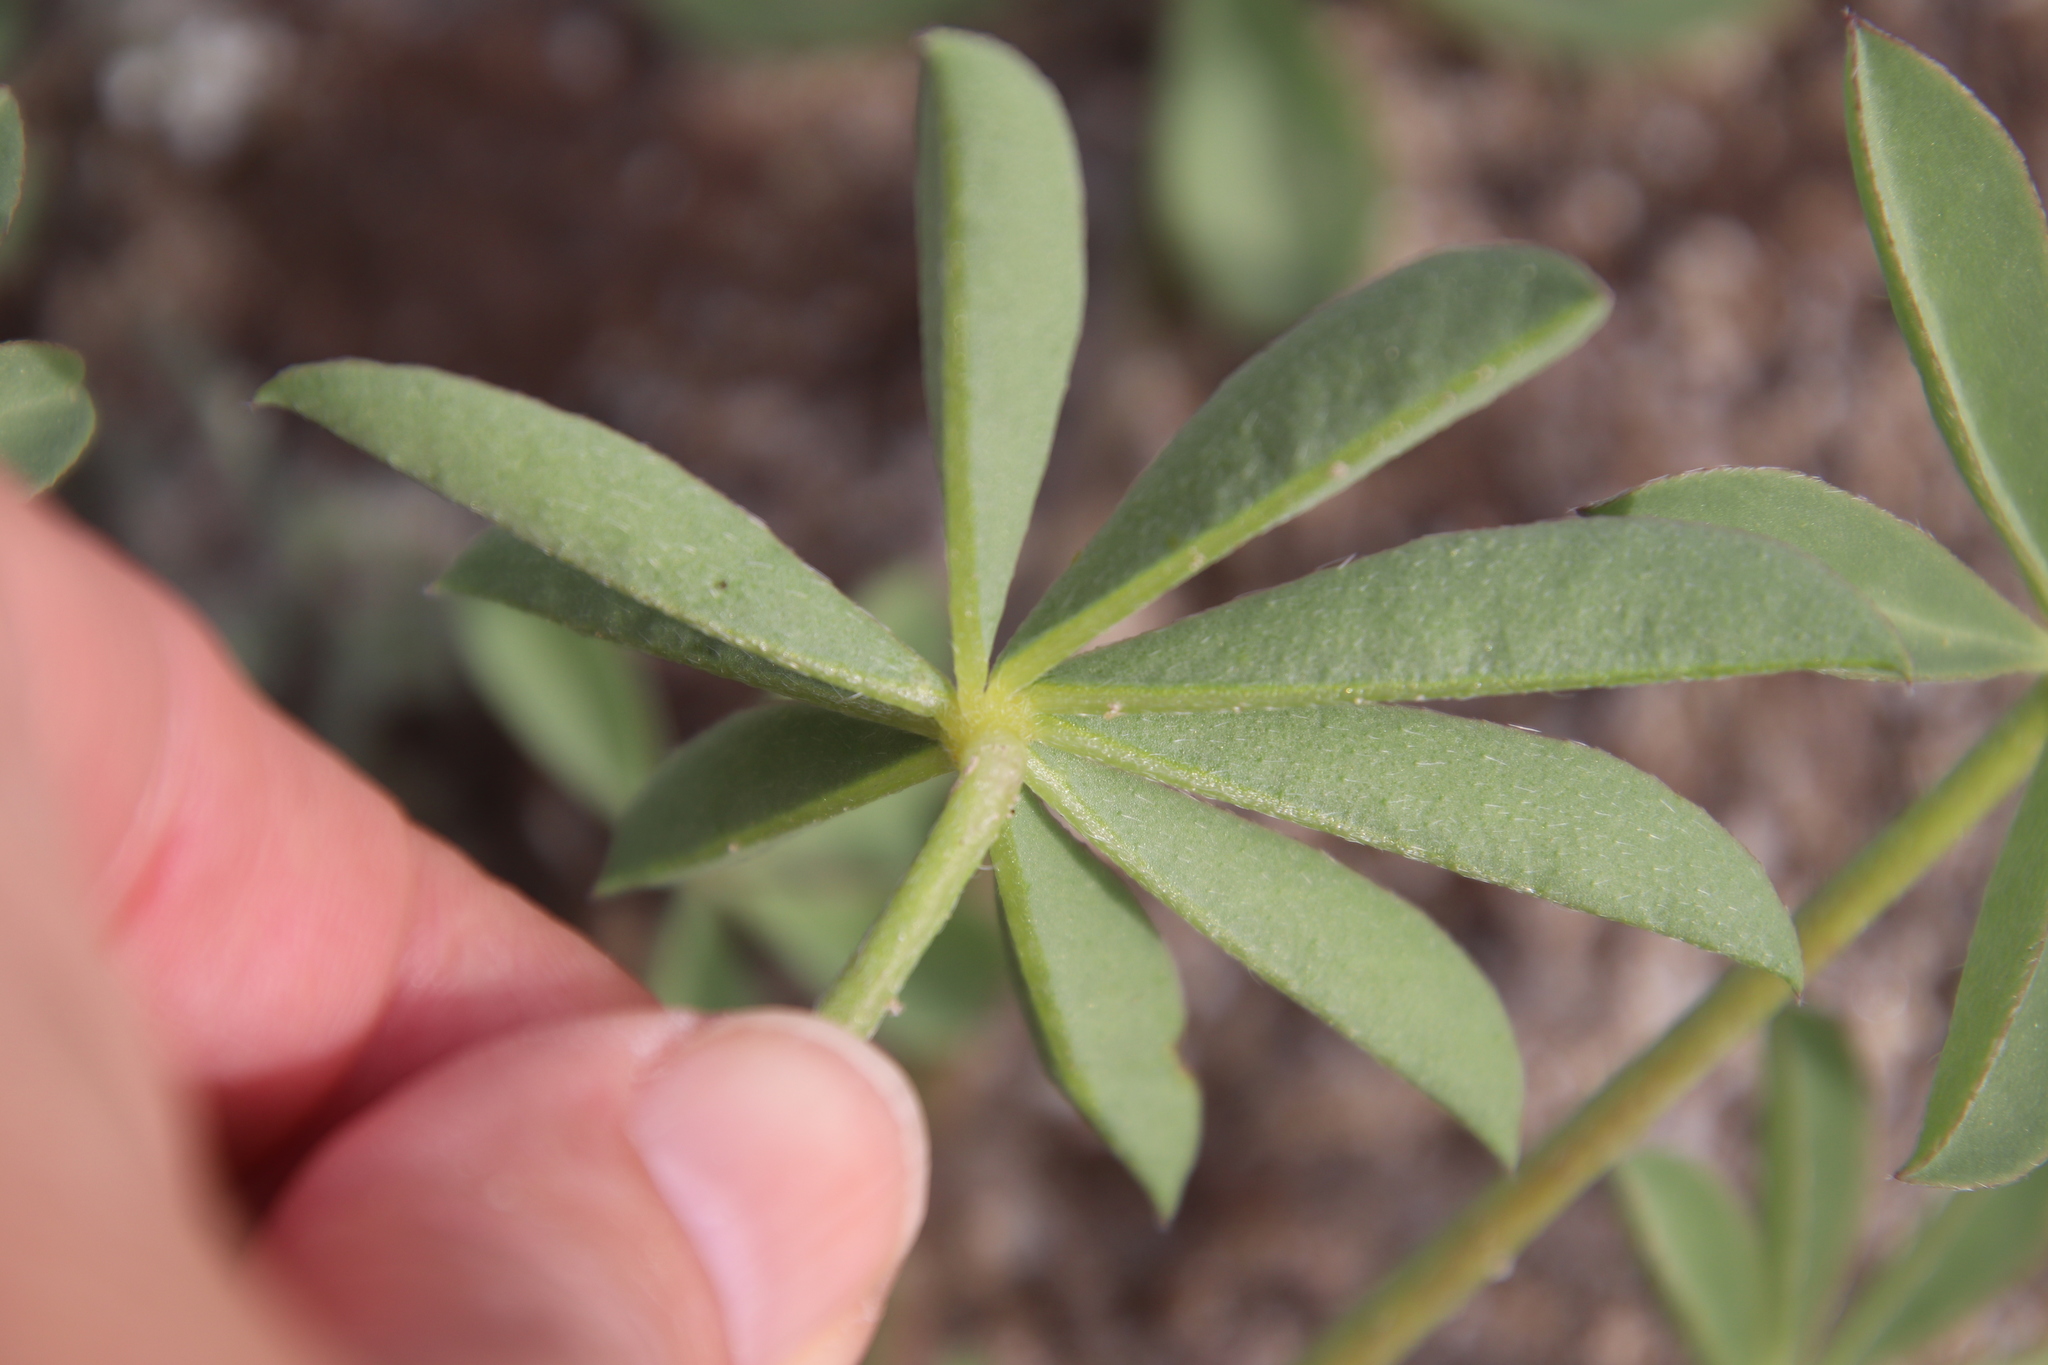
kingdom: Plantae
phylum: Tracheophyta
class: Magnoliopsida
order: Fabales
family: Fabaceae
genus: Lupinus
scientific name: Lupinus arizonicus
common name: Arizona lupine
